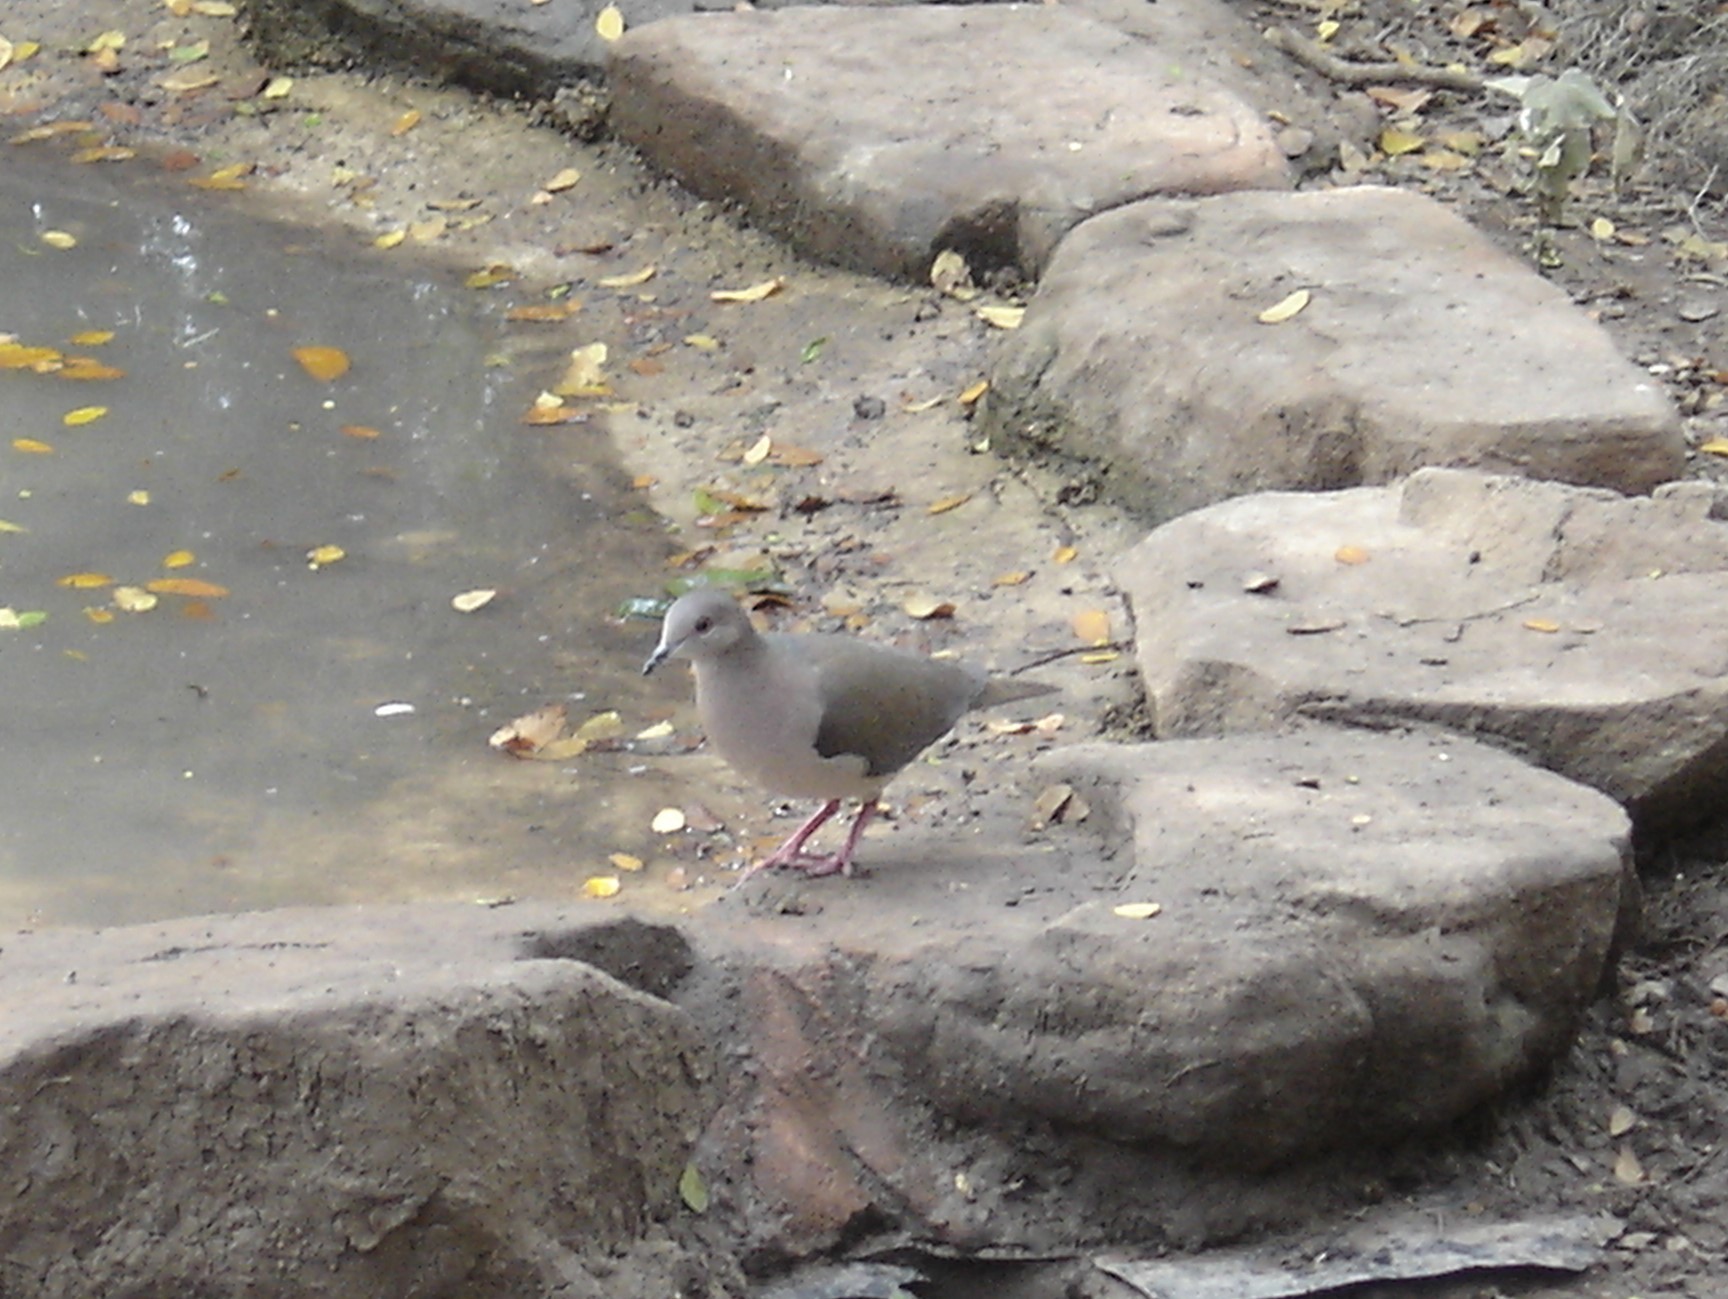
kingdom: Animalia
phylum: Chordata
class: Aves
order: Columbiformes
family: Columbidae
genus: Leptotila
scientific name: Leptotila verreauxi
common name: White-tipped dove
